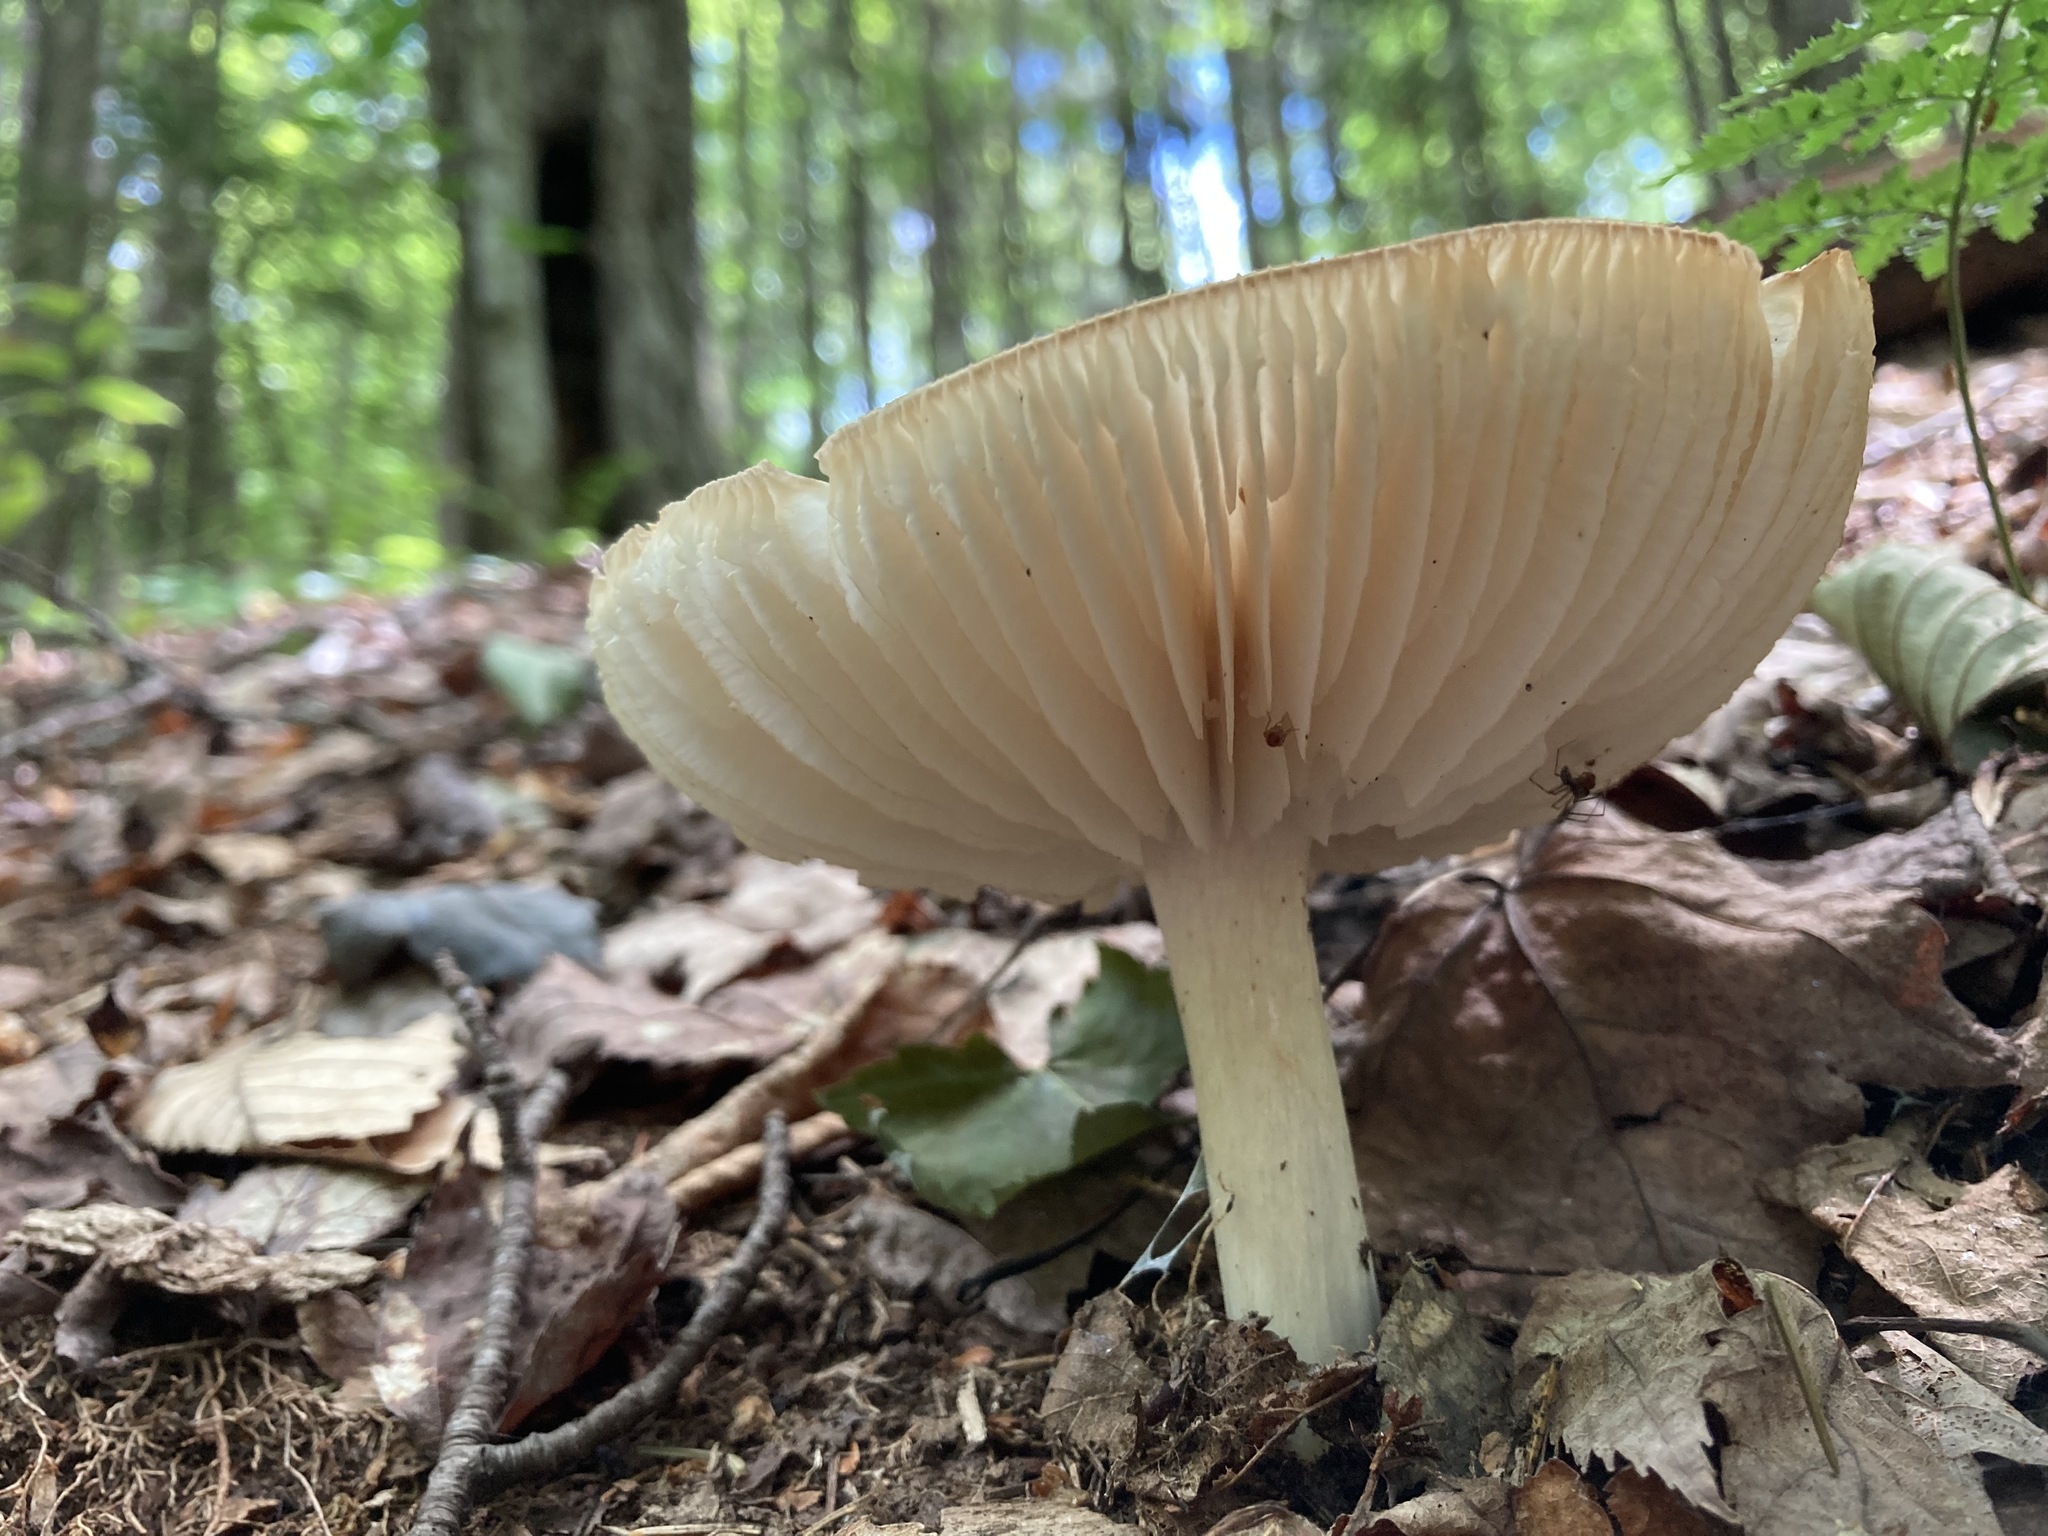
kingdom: Fungi
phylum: Basidiomycota
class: Agaricomycetes
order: Agaricales
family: Tricholomataceae
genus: Megacollybia
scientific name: Megacollybia rodmanii
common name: Eastern american platterful mushroom
